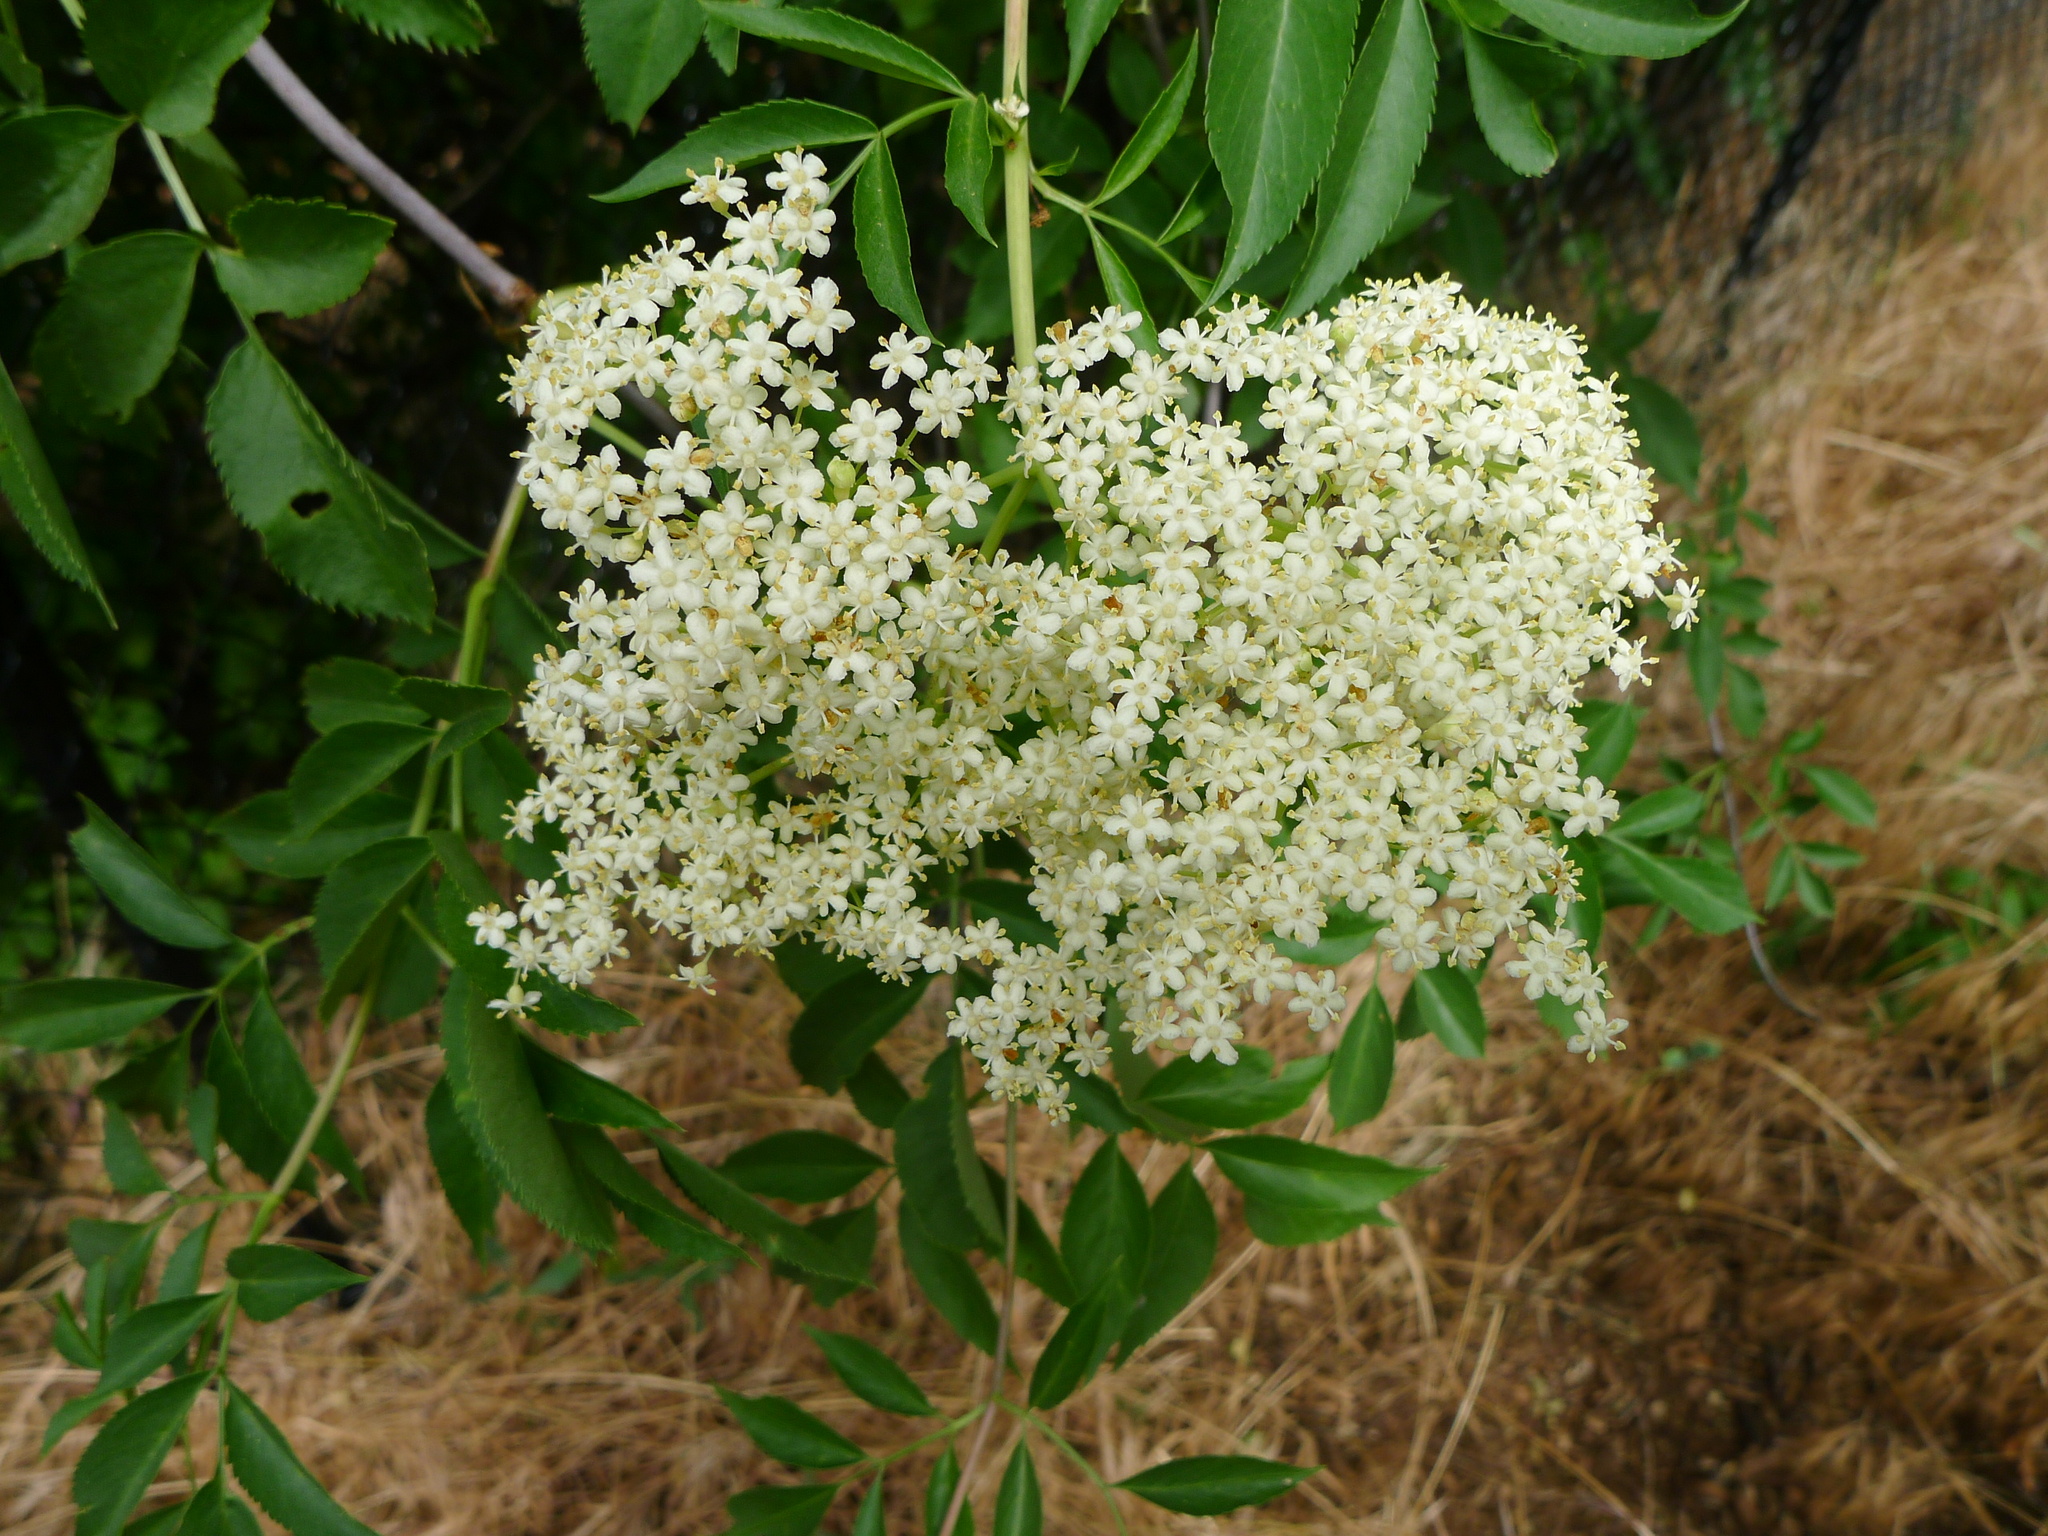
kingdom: Plantae
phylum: Tracheophyta
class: Magnoliopsida
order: Dipsacales
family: Viburnaceae
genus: Sambucus
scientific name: Sambucus cerulea
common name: Blue elder
